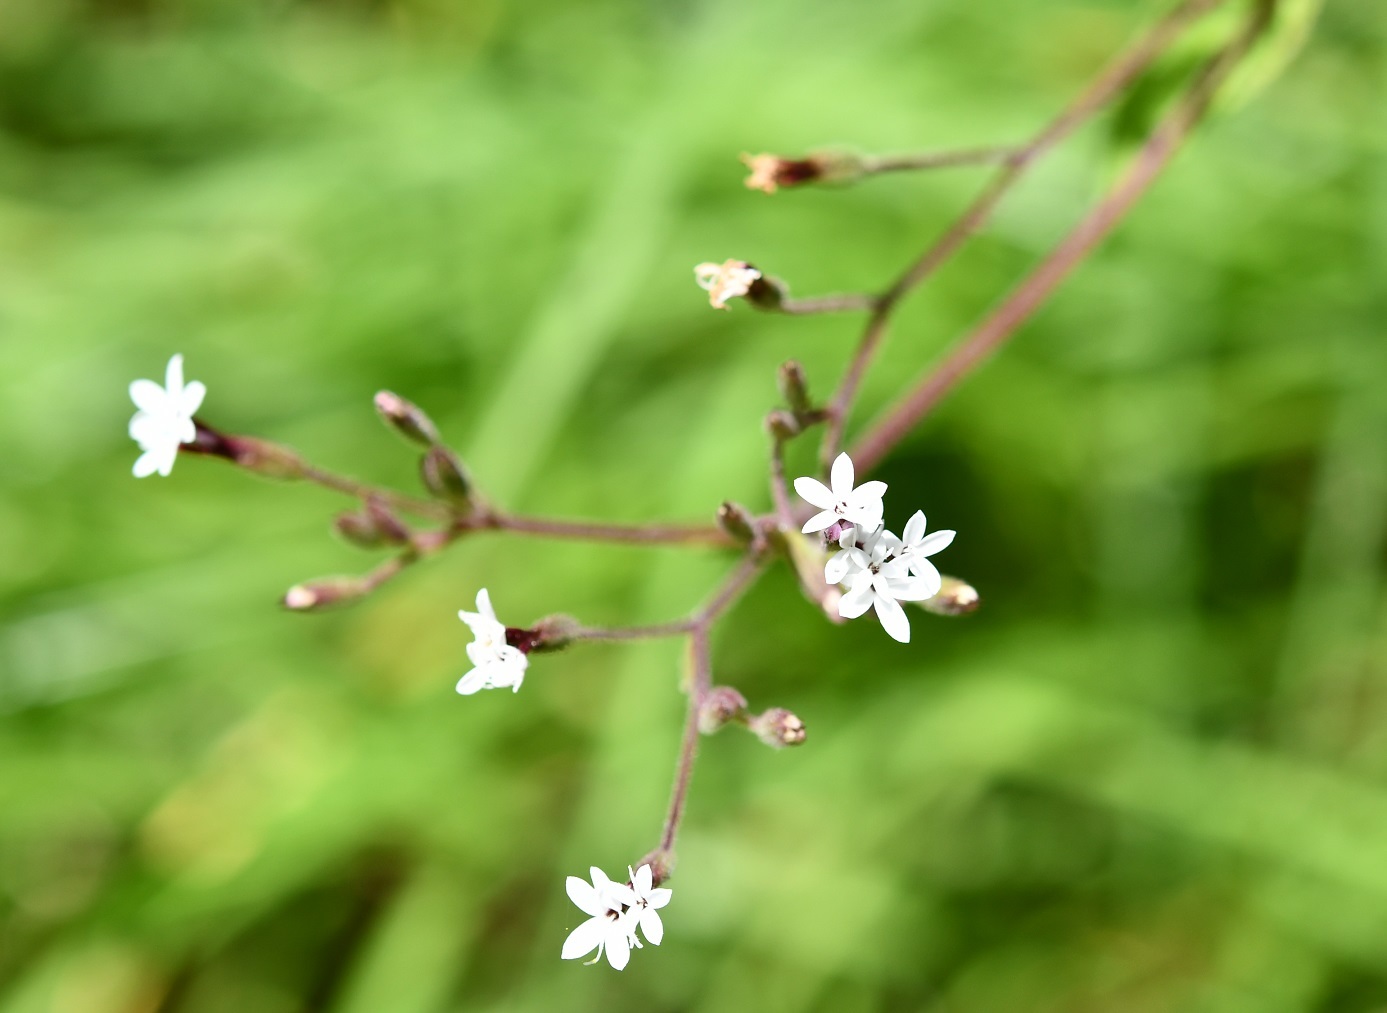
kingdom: Plantae
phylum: Tracheophyta
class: Magnoliopsida
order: Asterales
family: Asteraceae
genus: Stevia
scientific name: Stevia elatior
